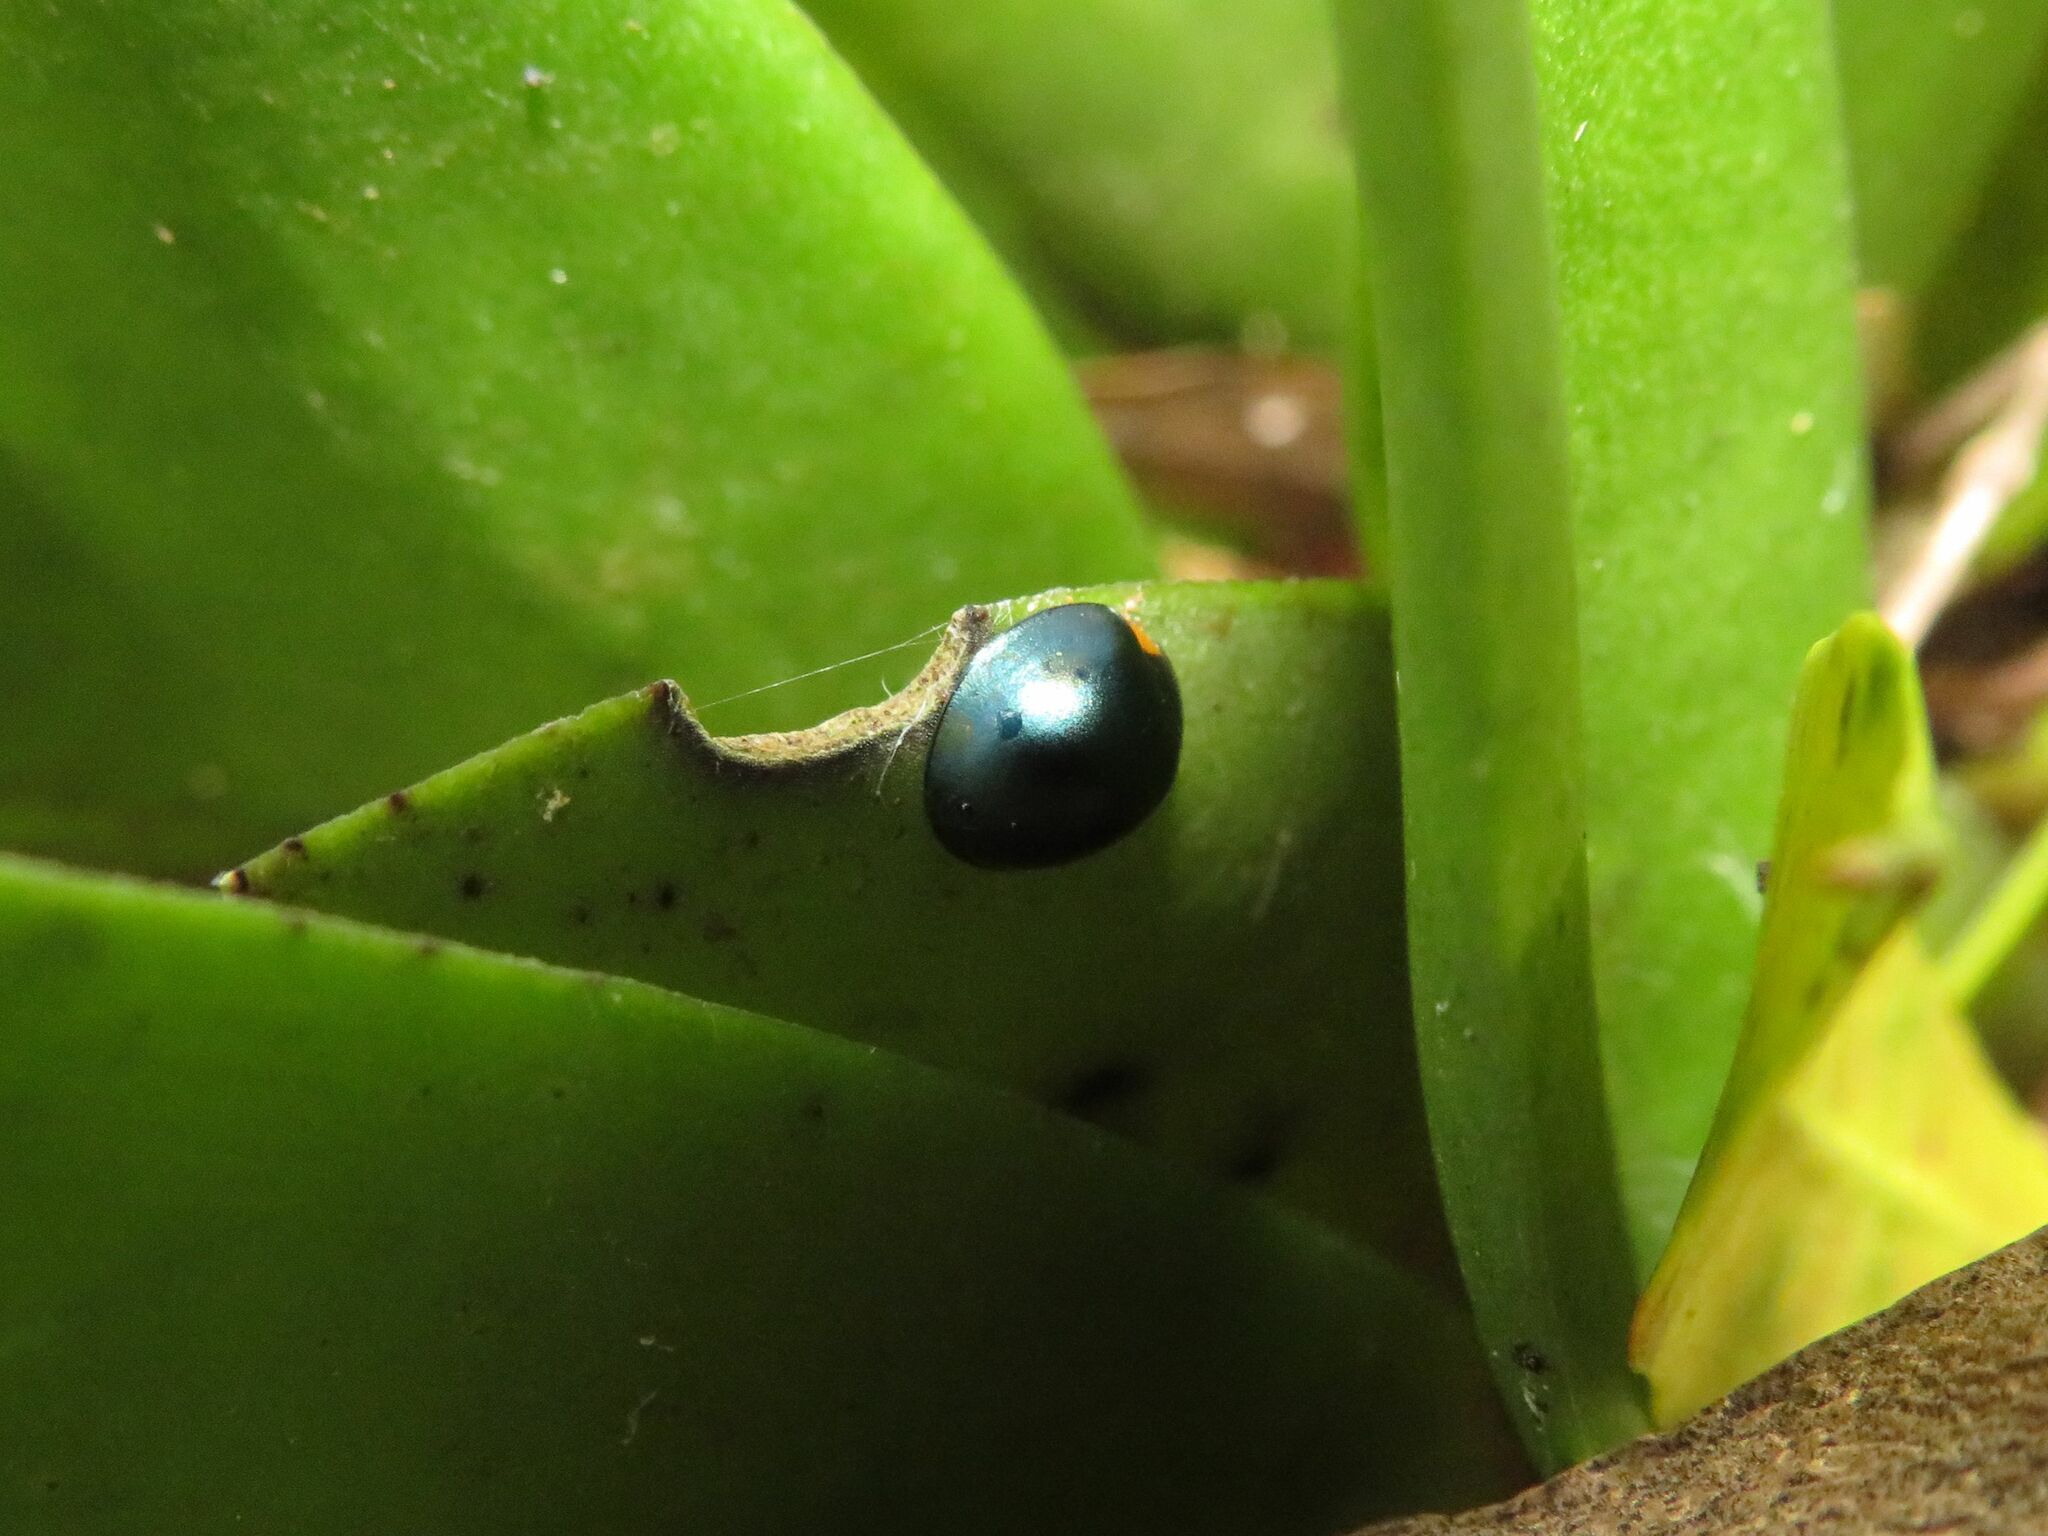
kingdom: Animalia
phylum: Arthropoda
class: Insecta
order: Coleoptera
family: Coccinellidae
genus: Curinus
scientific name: Curinus coeruleus
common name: Ladybird beetle
